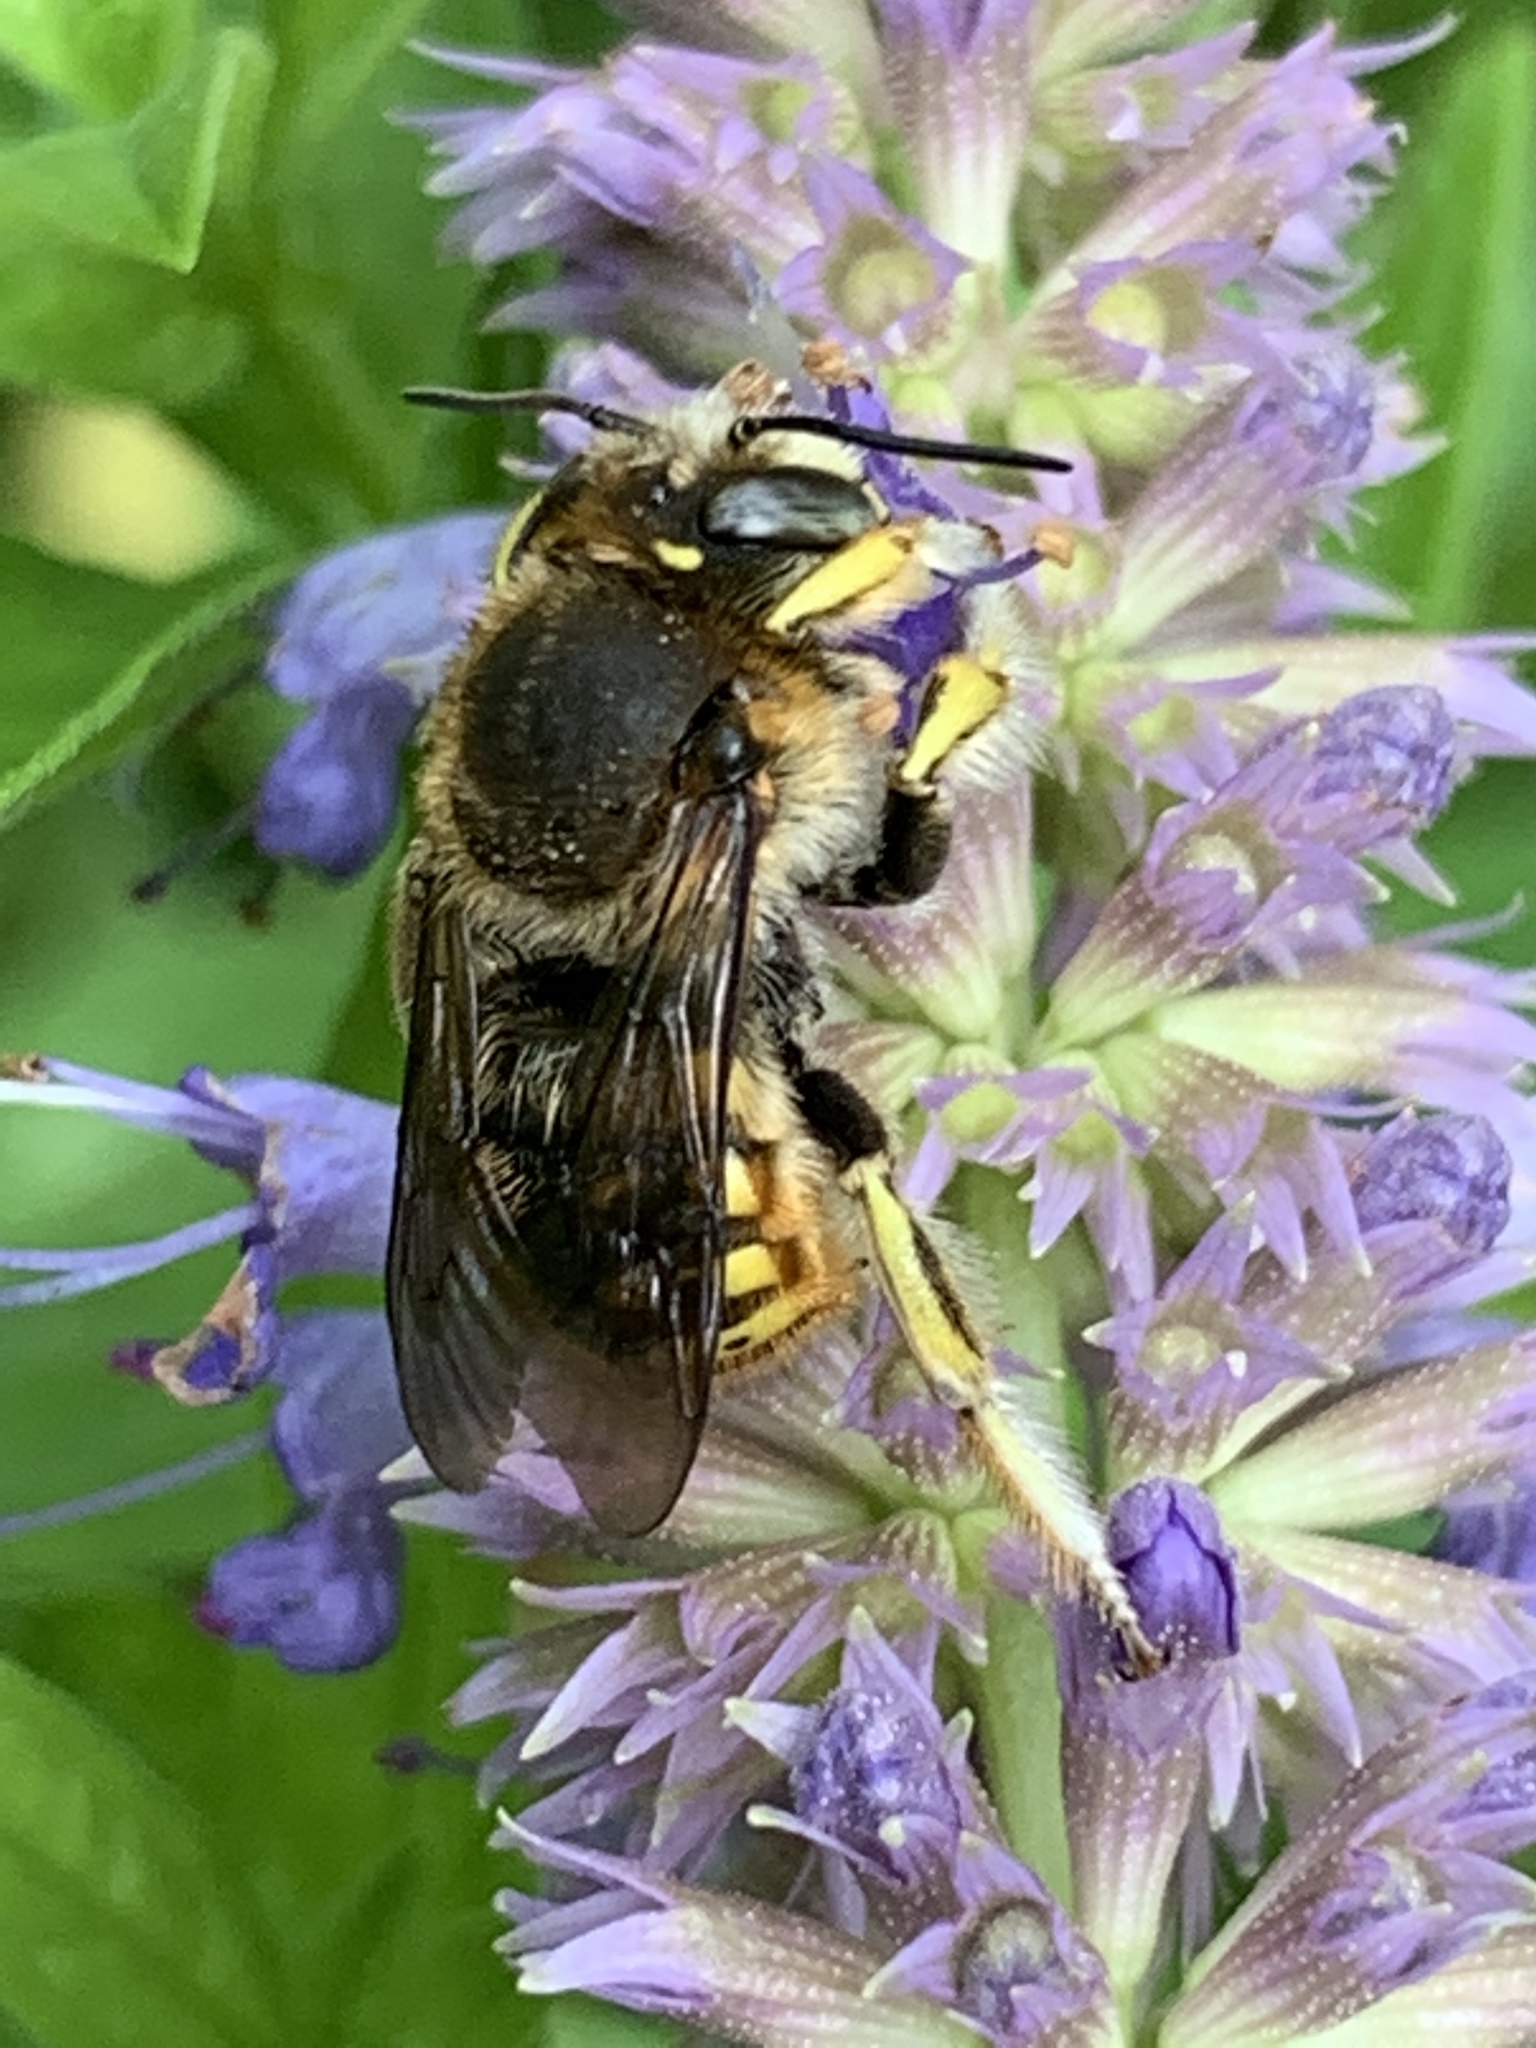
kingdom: Animalia
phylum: Arthropoda
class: Insecta
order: Hymenoptera
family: Megachilidae
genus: Anthidium
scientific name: Anthidium manicatum
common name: Wool carder bee
